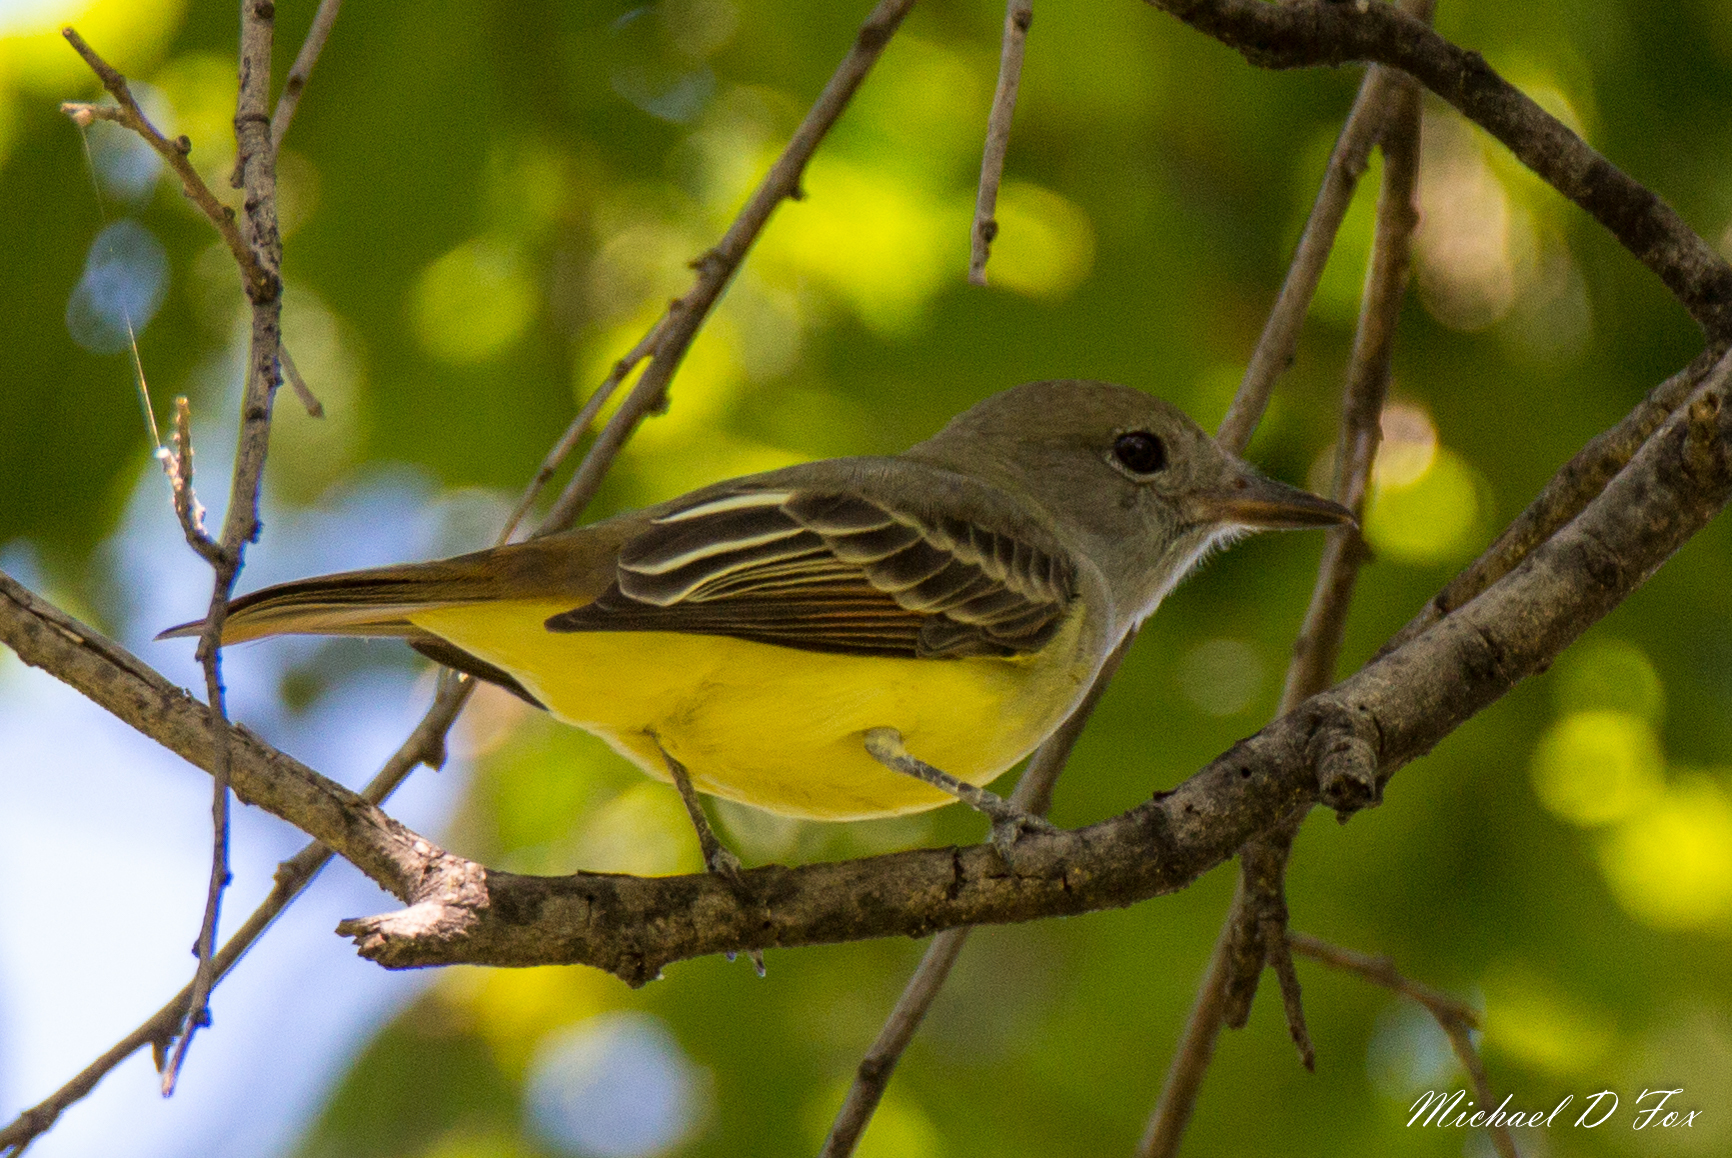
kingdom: Animalia
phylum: Chordata
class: Aves
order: Passeriformes
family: Tyrannidae
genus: Myiarchus
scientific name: Myiarchus crinitus
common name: Great crested flycatcher
